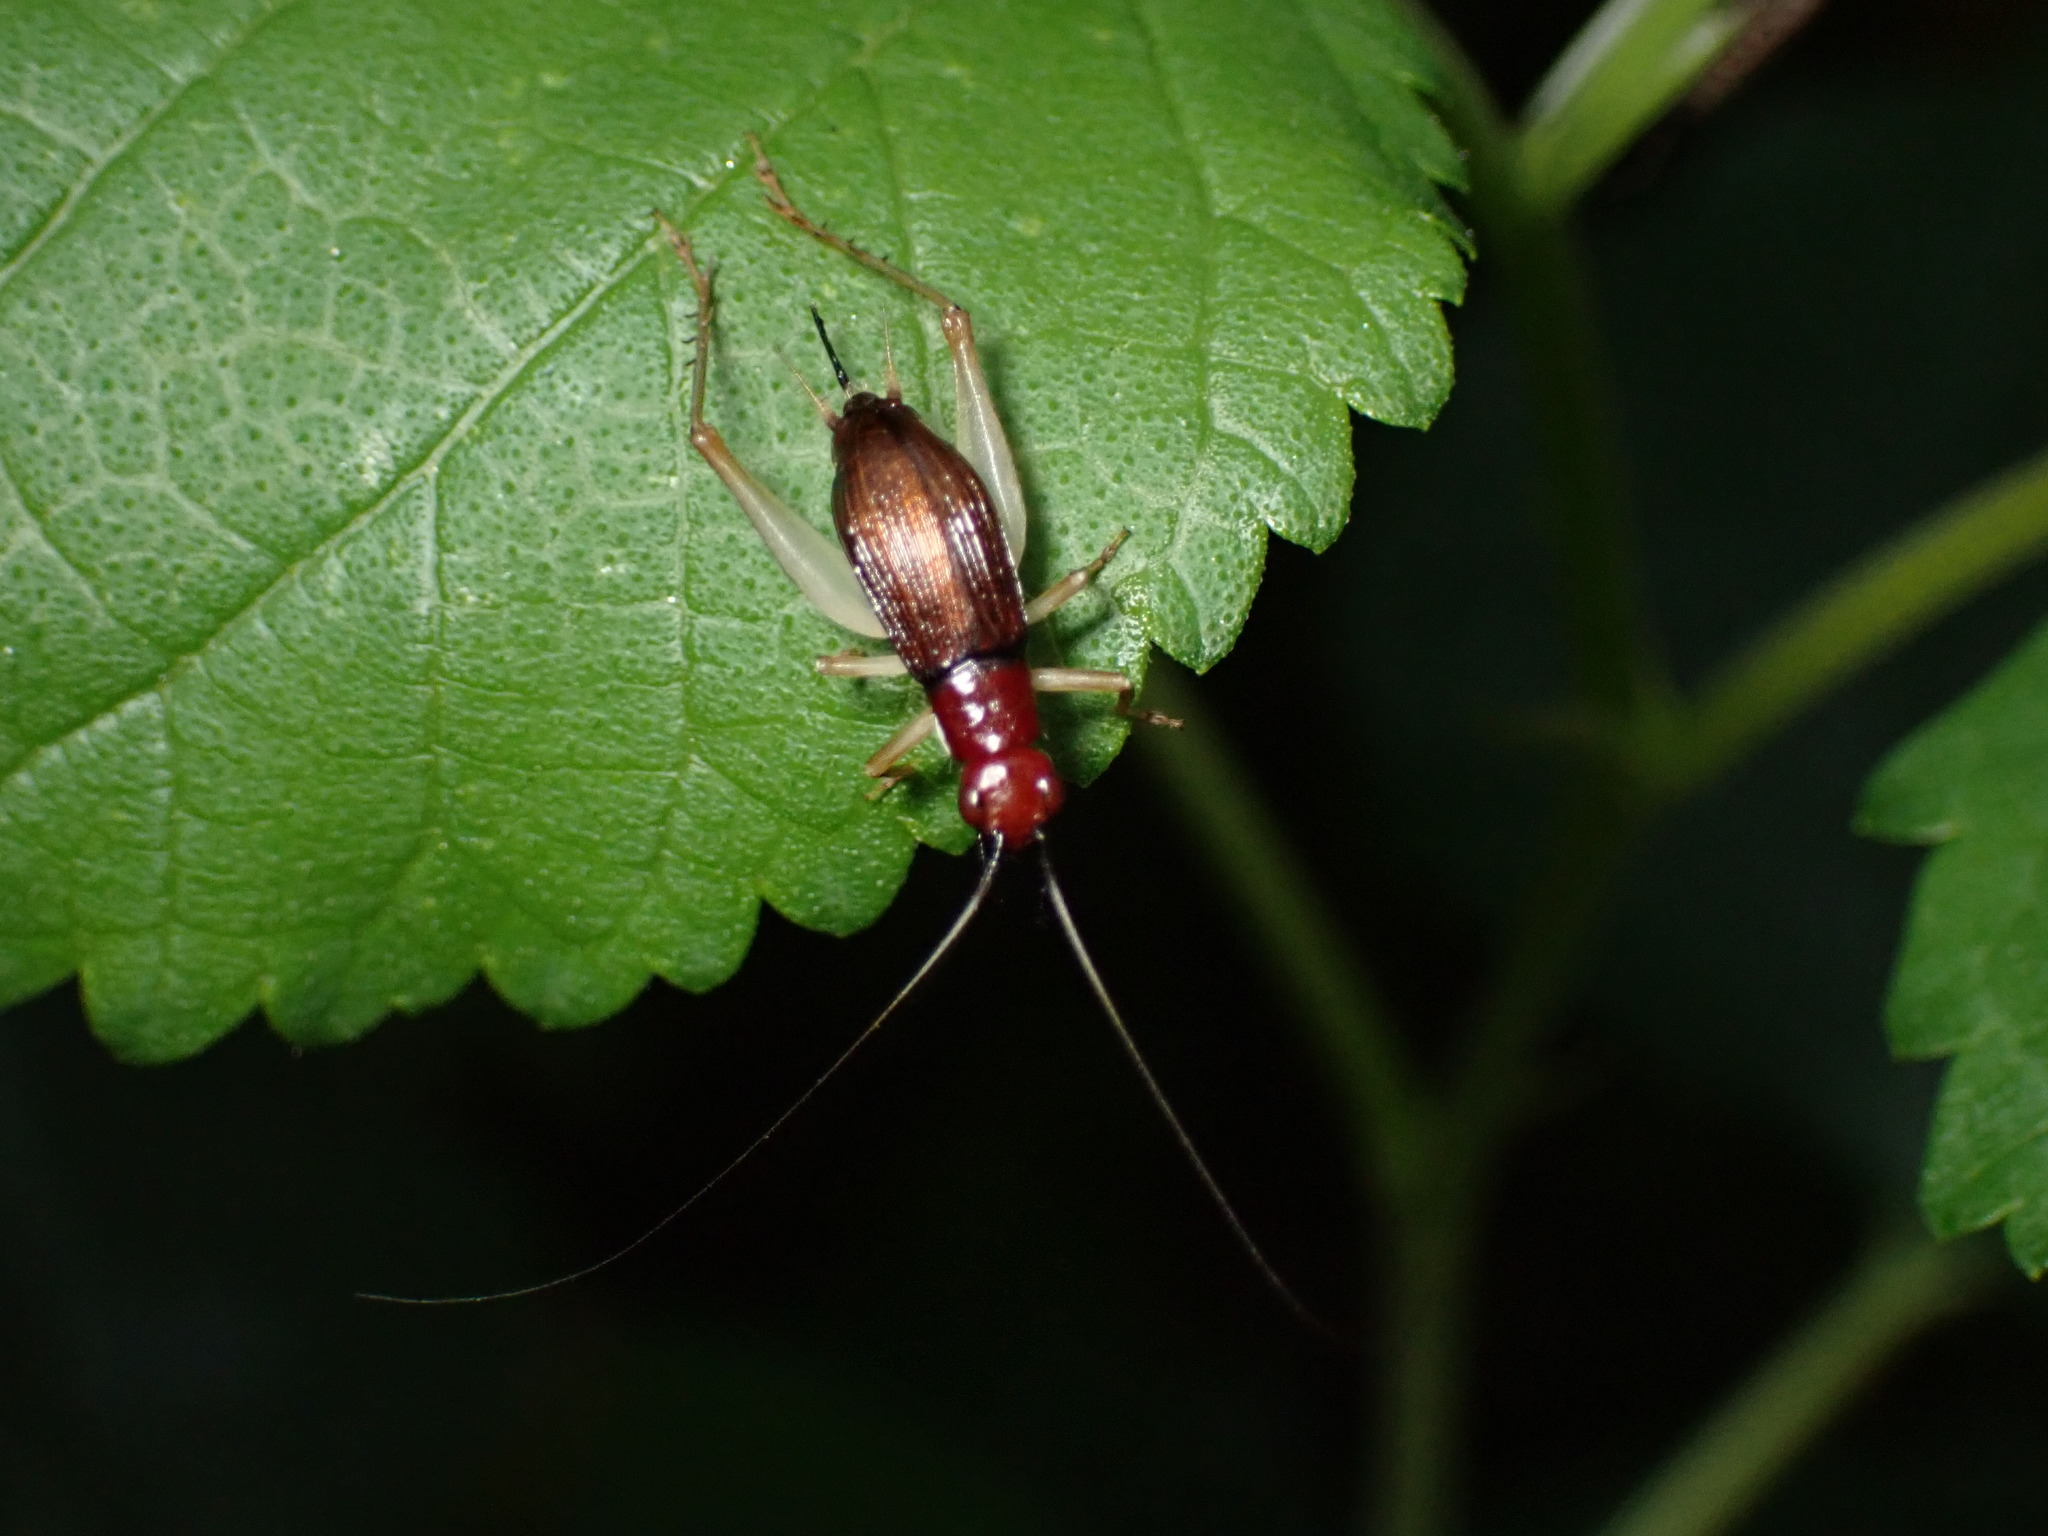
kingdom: Animalia
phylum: Arthropoda
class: Insecta
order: Orthoptera
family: Trigonidiidae
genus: Phyllopalpus
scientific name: Phyllopalpus pulchellus
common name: Handsome trig
